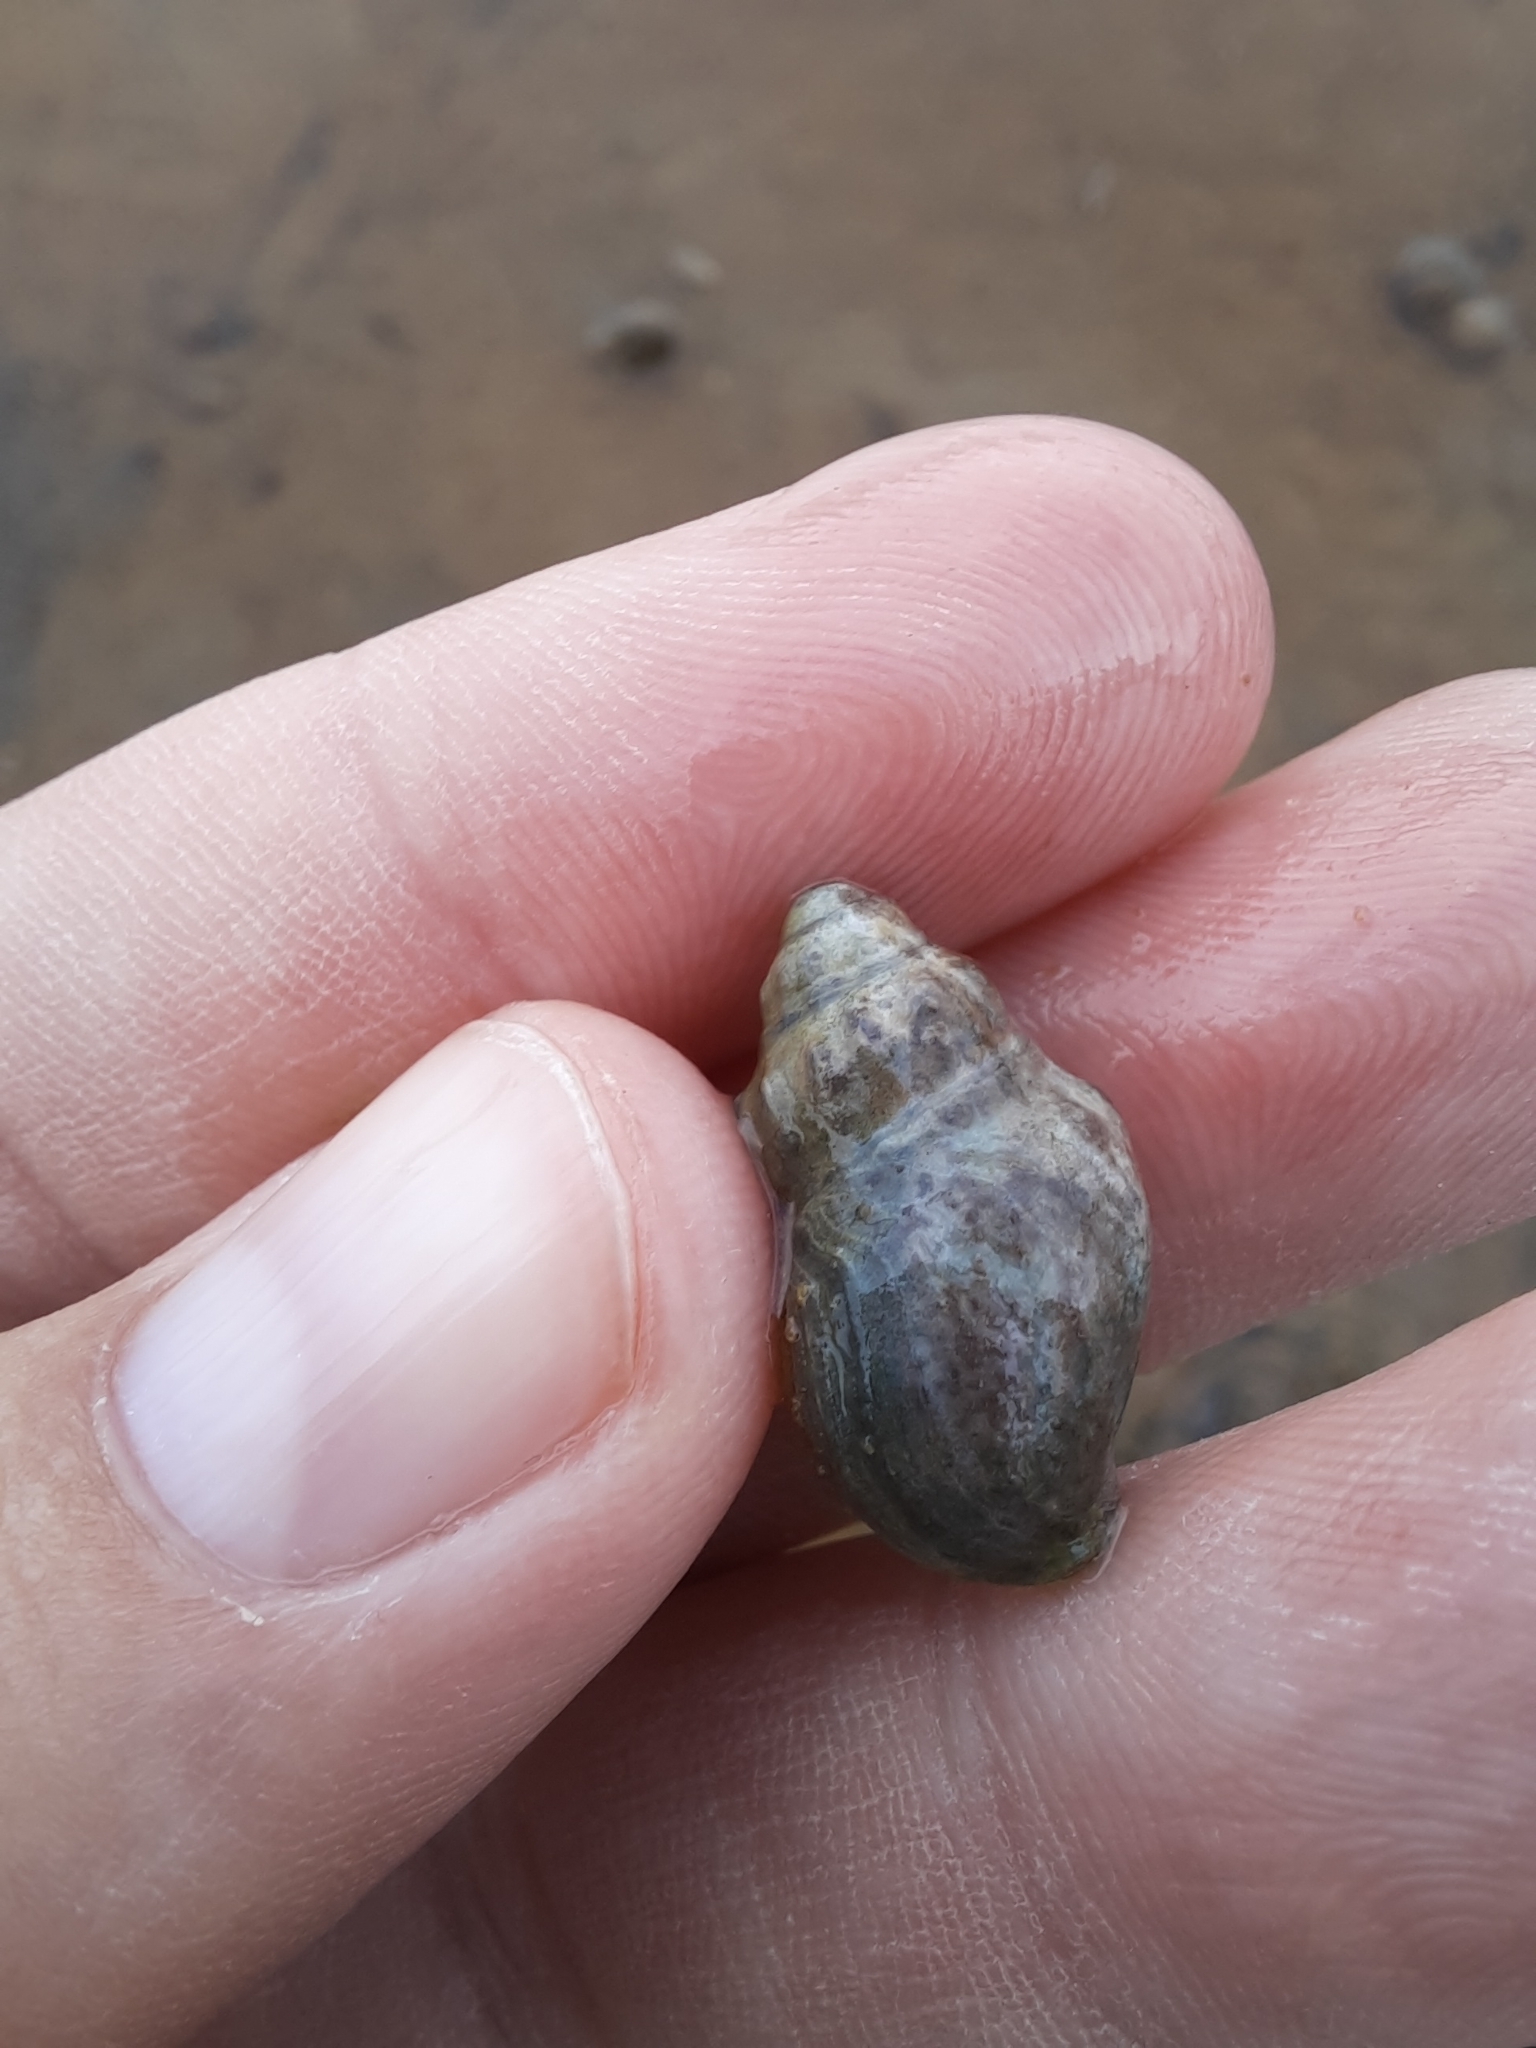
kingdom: Animalia
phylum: Mollusca
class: Gastropoda
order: Neogastropoda
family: Cominellidae
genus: Cominella
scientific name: Cominella glandiformis
